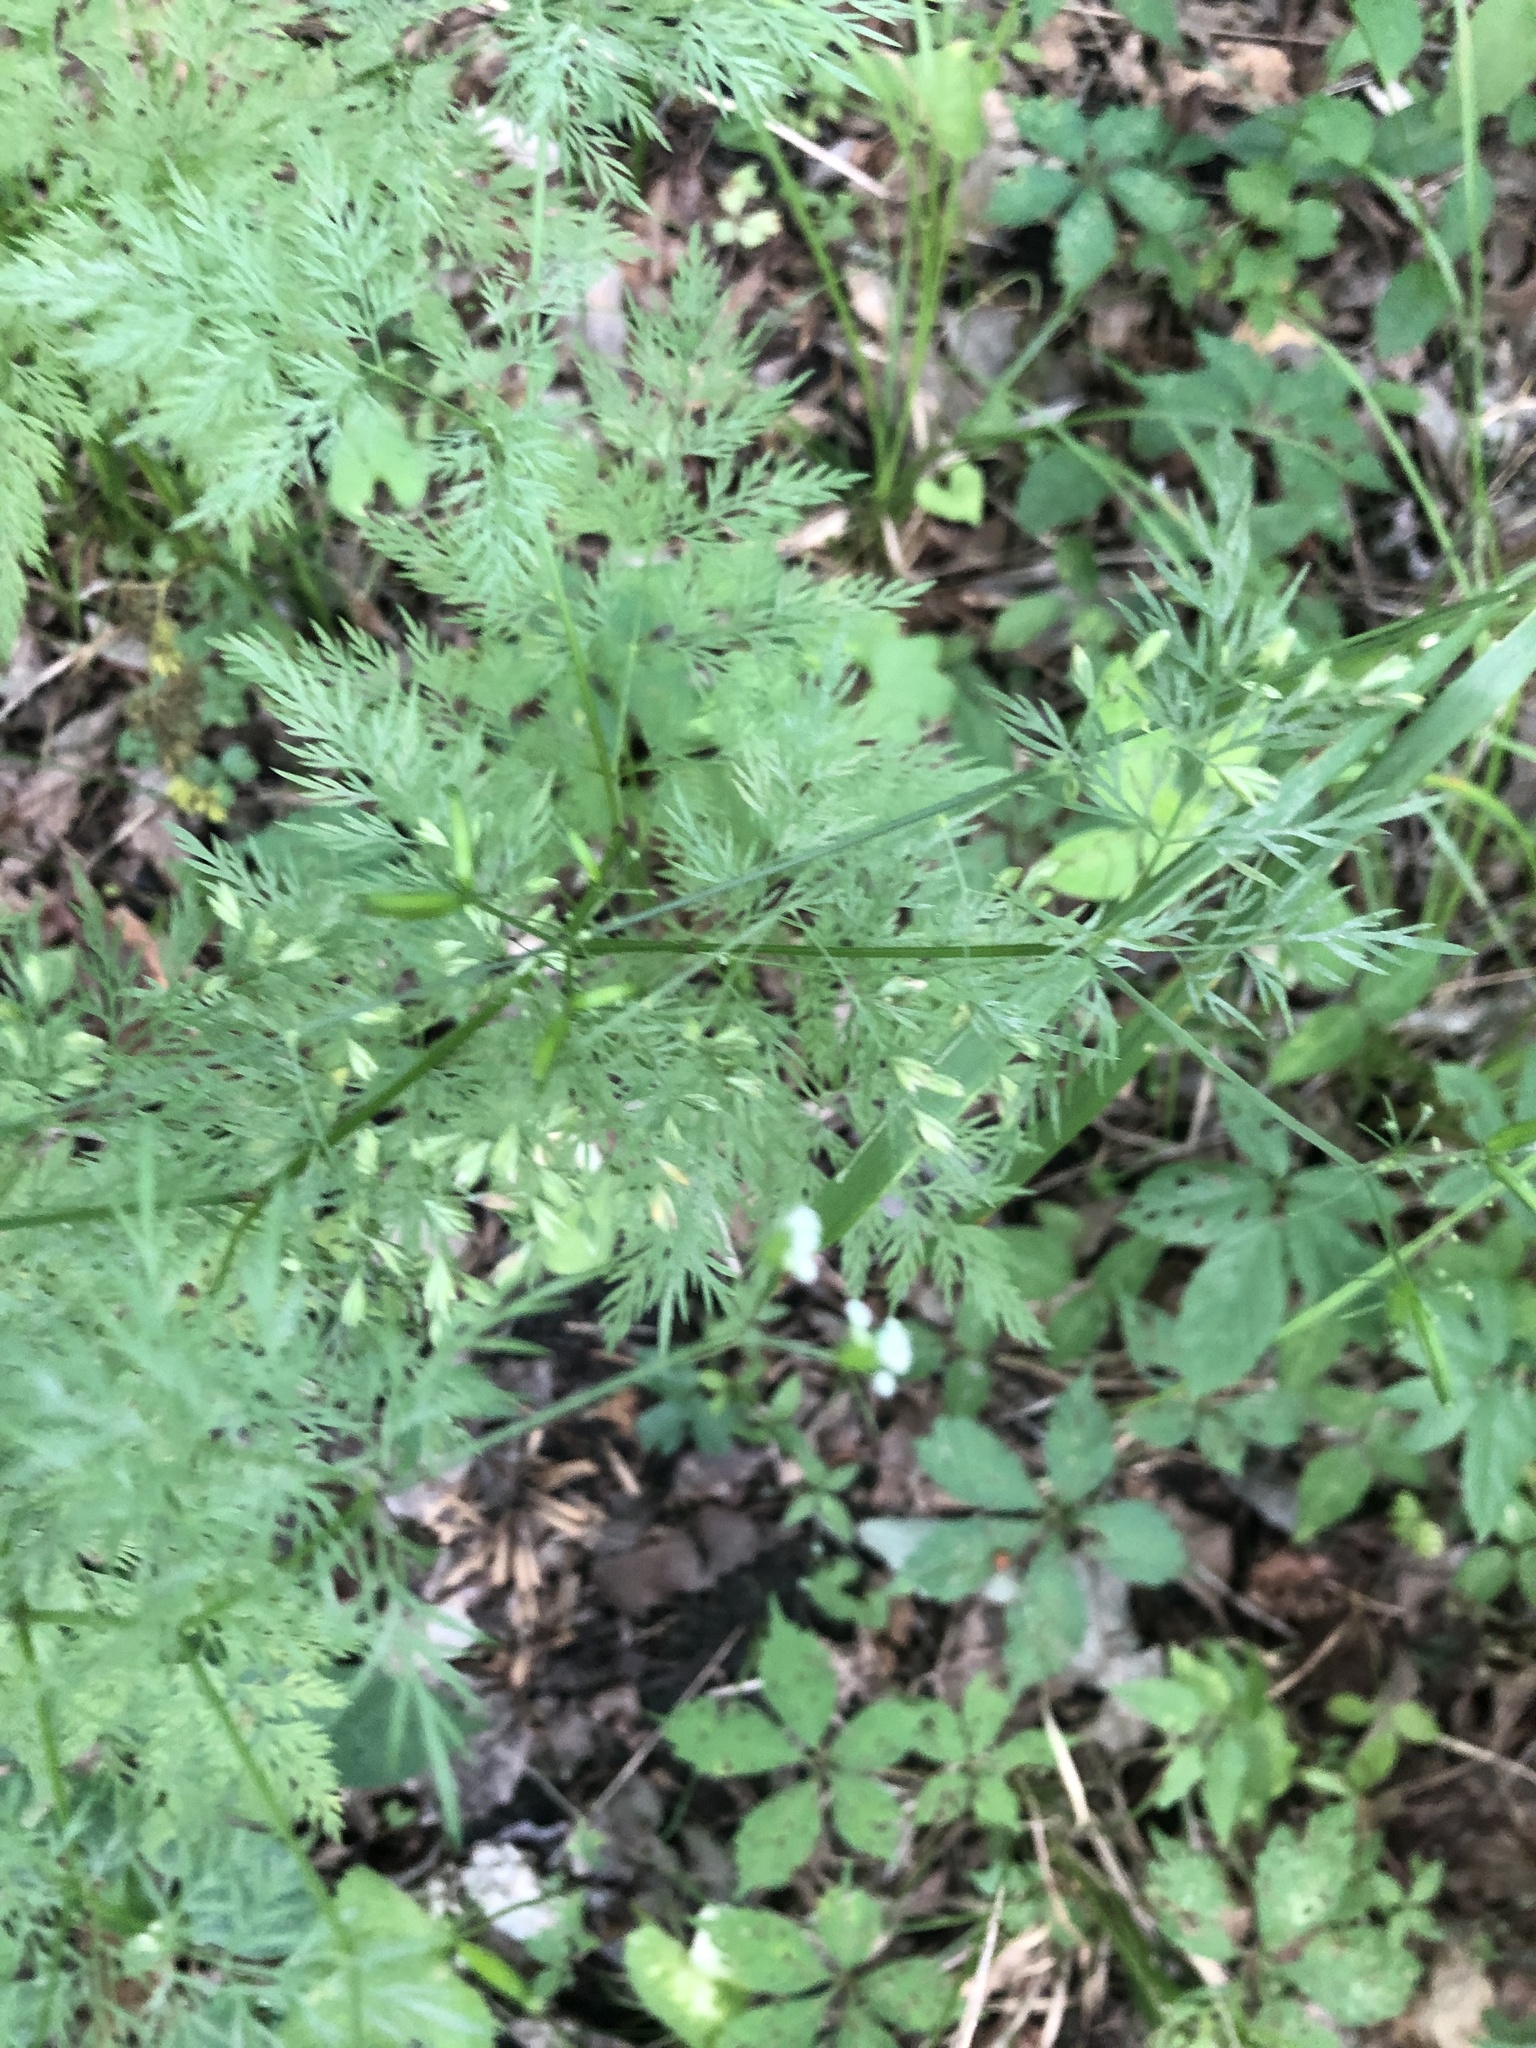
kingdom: Plantae
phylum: Tracheophyta
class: Magnoliopsida
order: Apiales
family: Apiaceae
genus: Trepocarpus
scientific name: Trepocarpus aethusae
